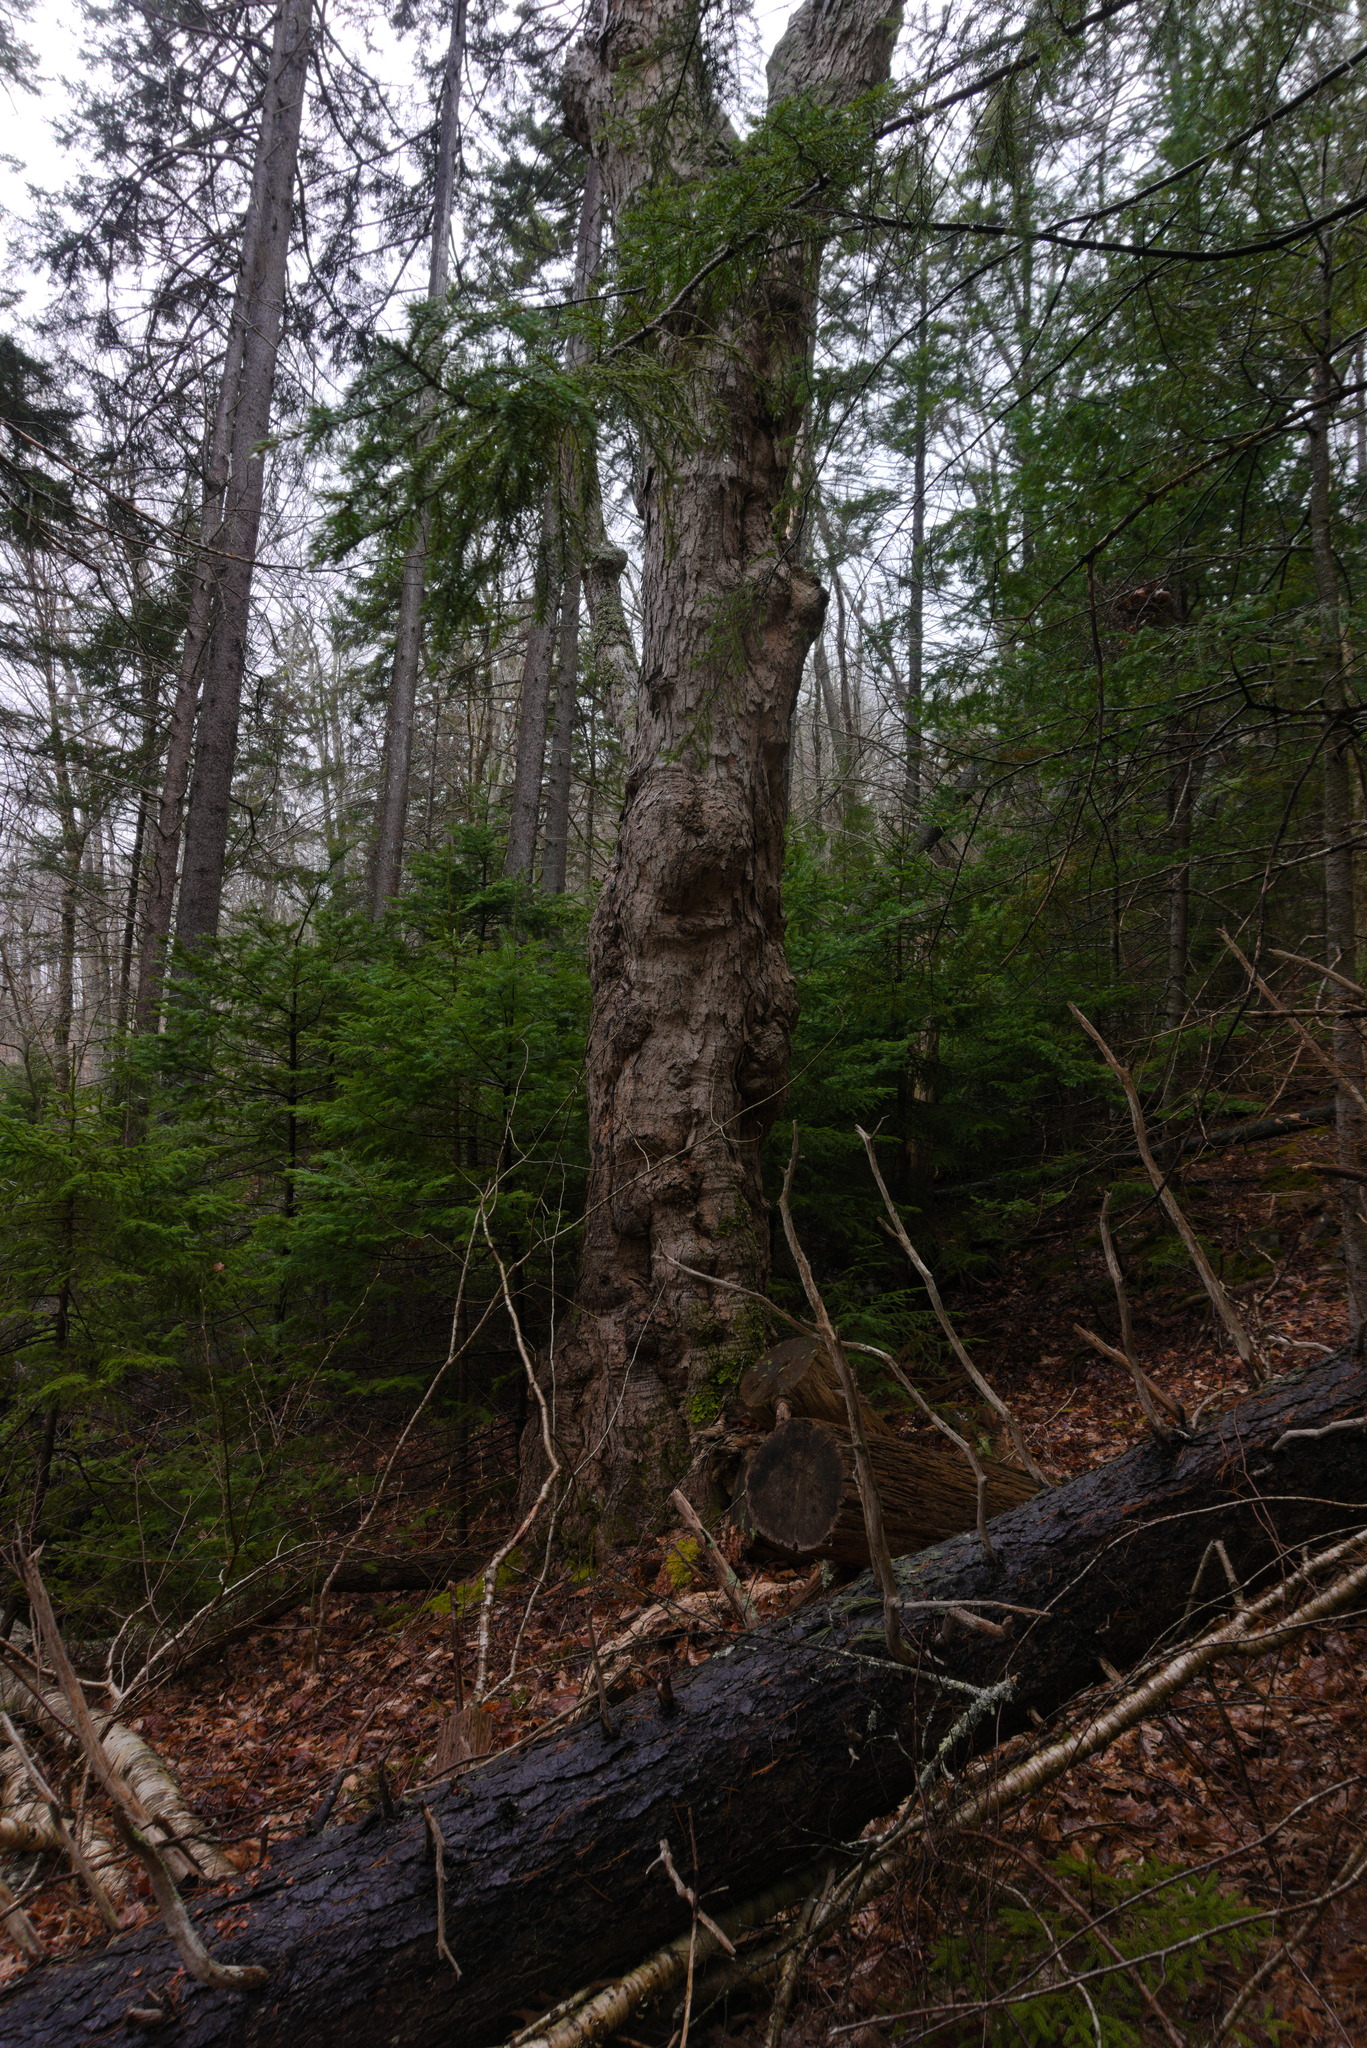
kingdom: Plantae
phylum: Tracheophyta
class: Magnoliopsida
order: Sapindales
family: Sapindaceae
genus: Acer
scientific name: Acer saccharum
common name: Sugar maple
